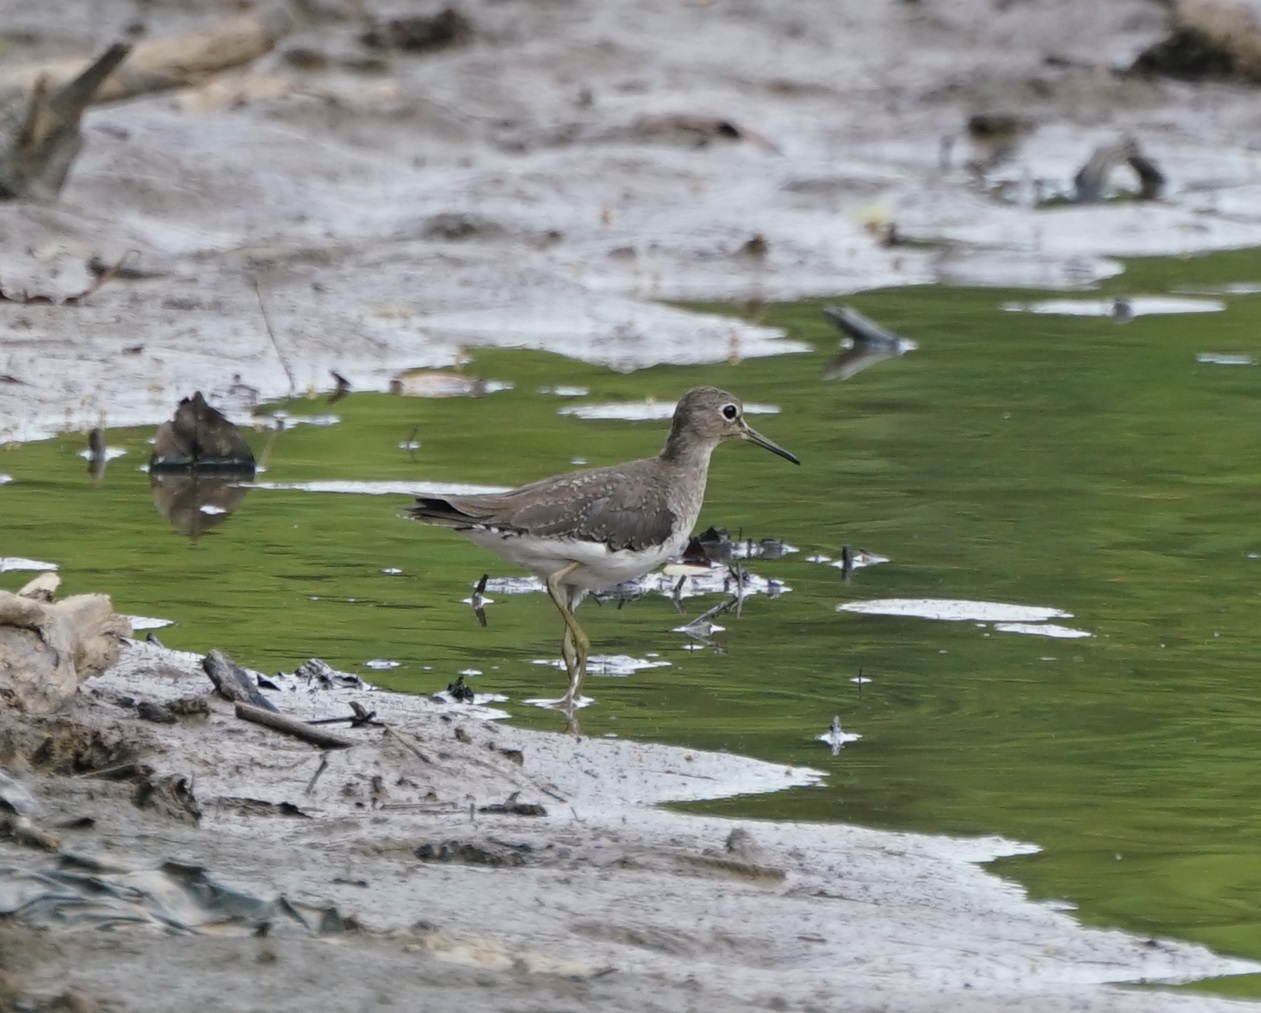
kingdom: Animalia
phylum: Chordata
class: Aves
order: Charadriiformes
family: Scolopacidae
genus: Tringa
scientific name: Tringa solitaria
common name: Solitary sandpiper
